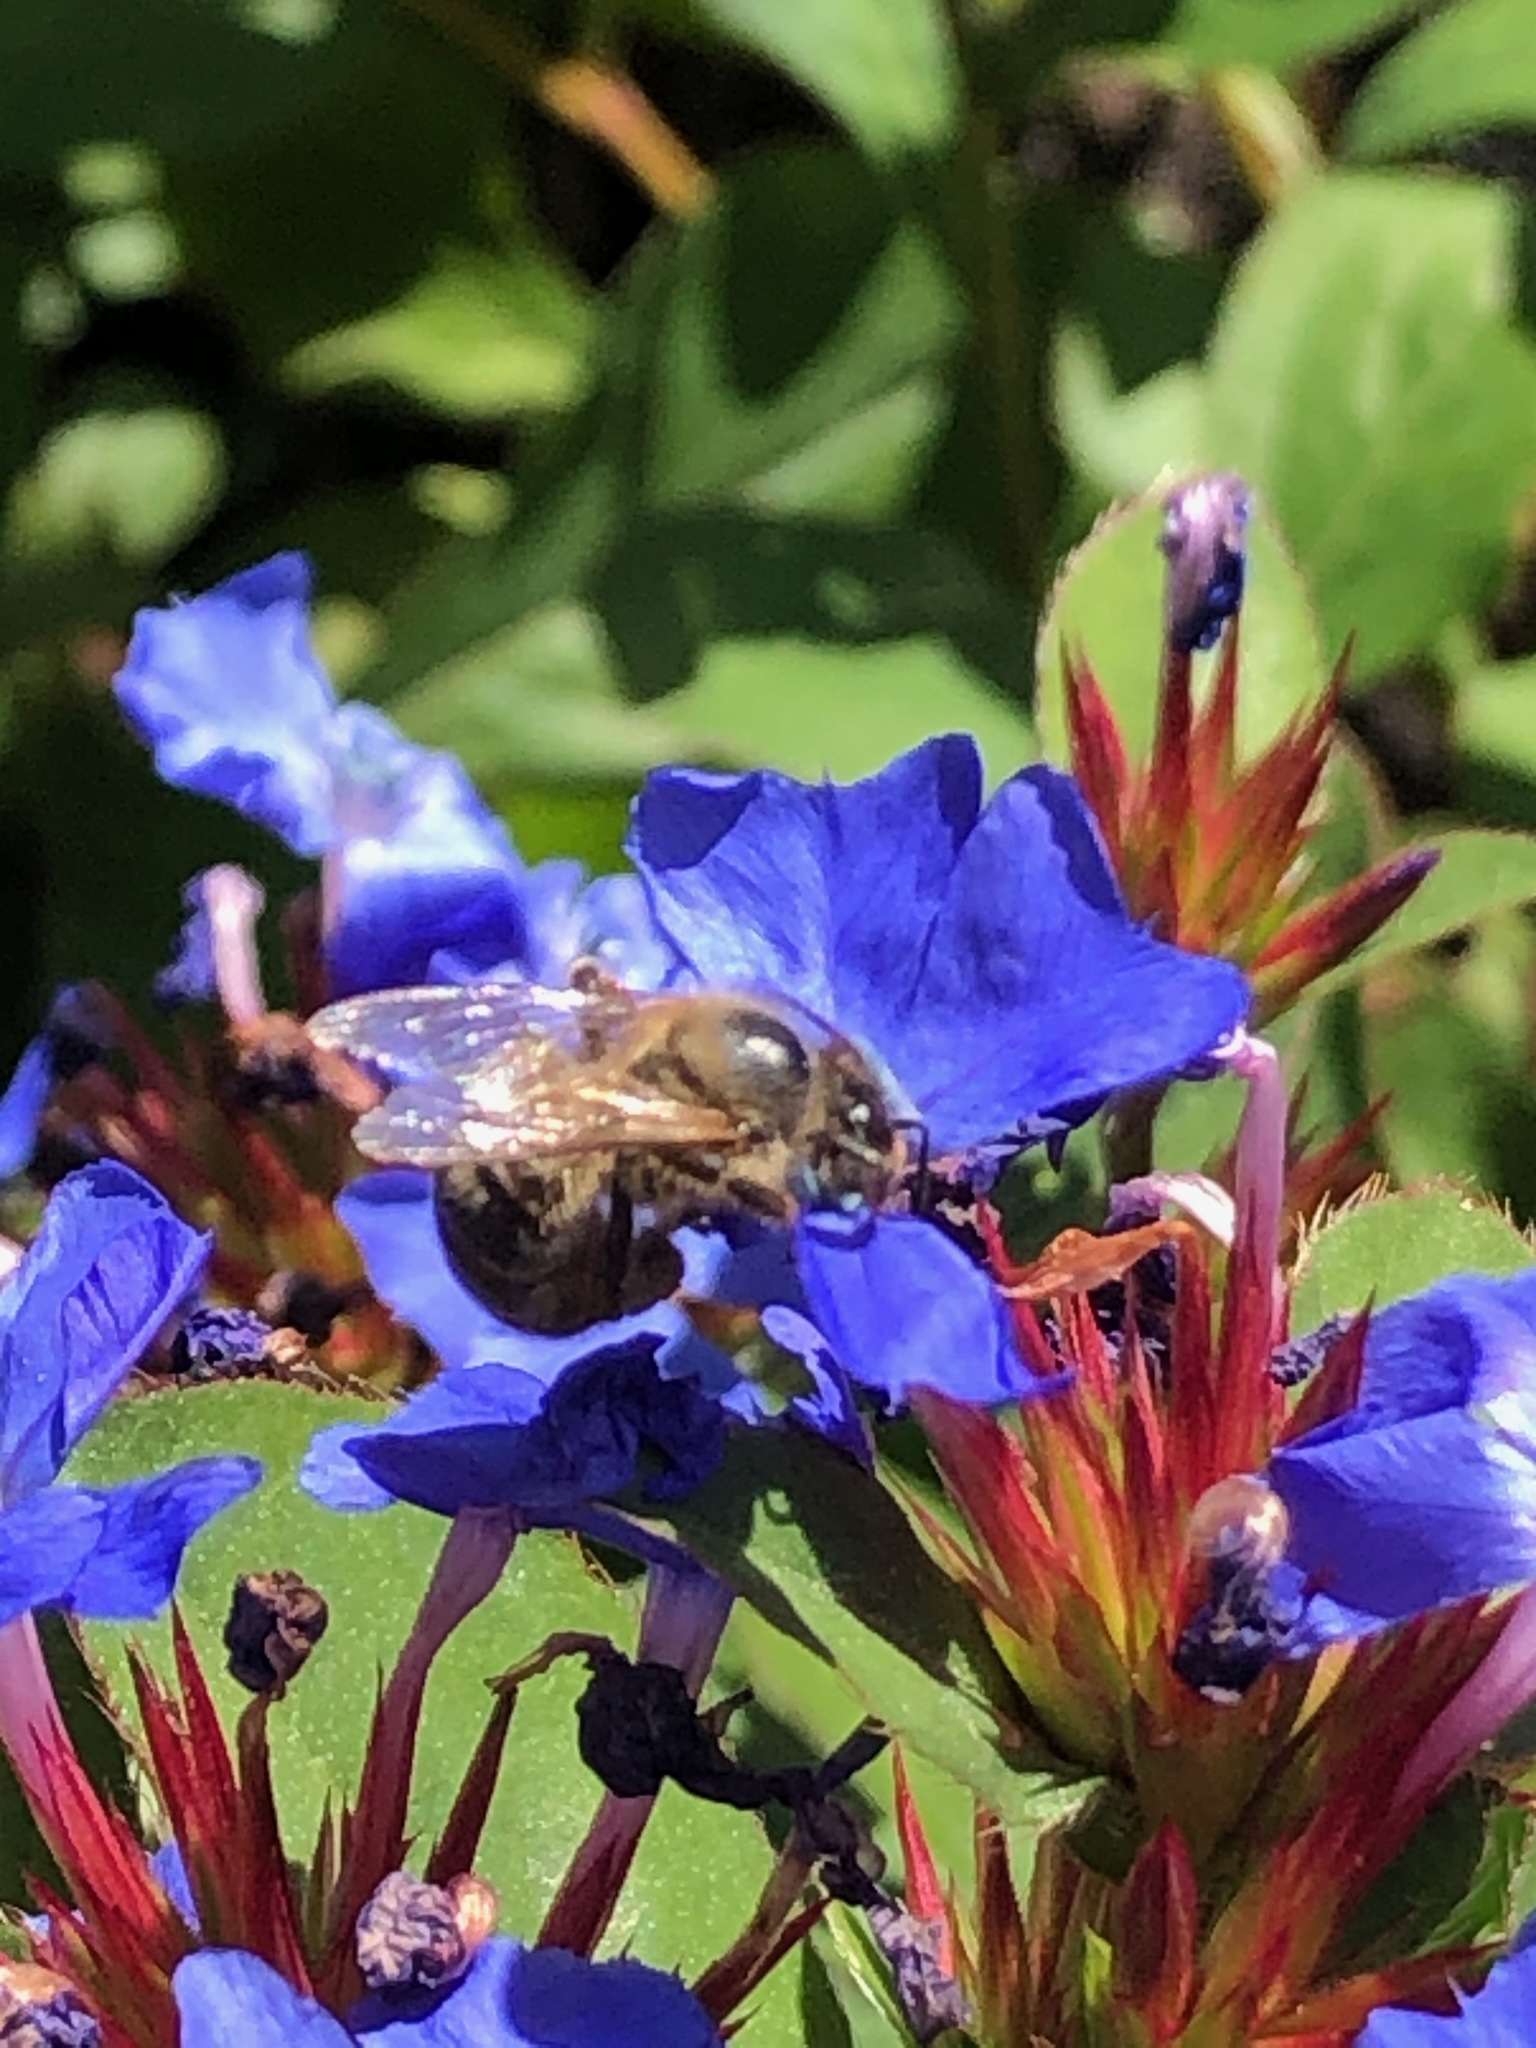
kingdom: Animalia
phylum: Arthropoda
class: Insecta
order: Hymenoptera
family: Apidae
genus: Apis
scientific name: Apis mellifera
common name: Honey bee
